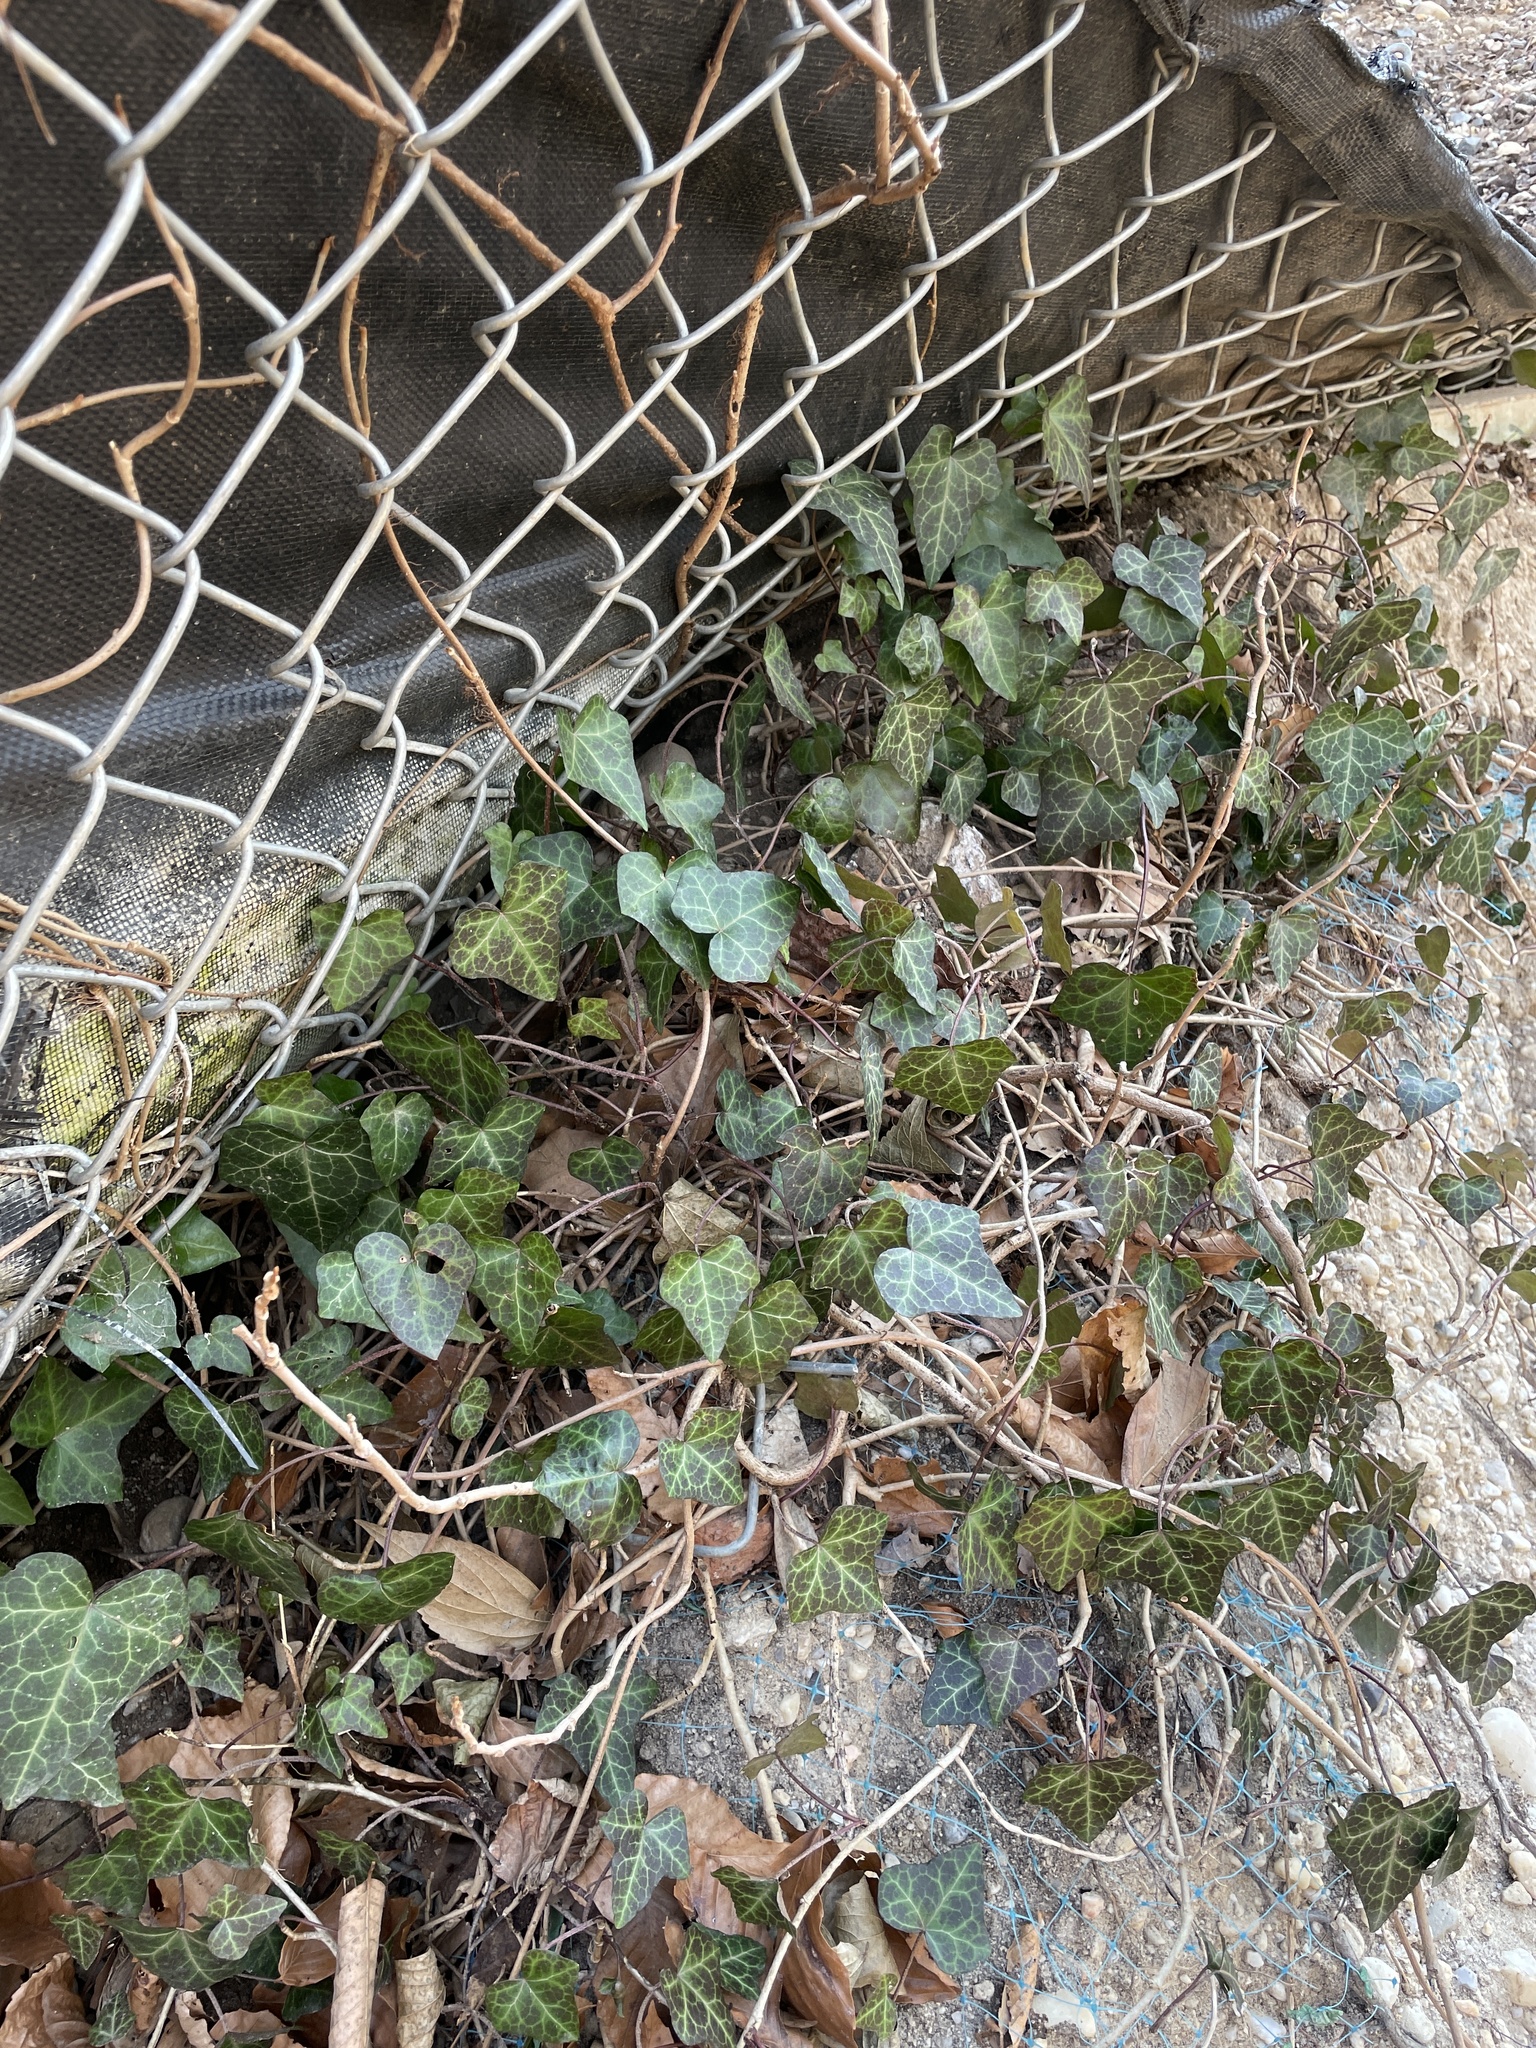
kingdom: Plantae
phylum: Tracheophyta
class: Magnoliopsida
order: Apiales
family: Araliaceae
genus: Hedera
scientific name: Hedera helix
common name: Ivy
